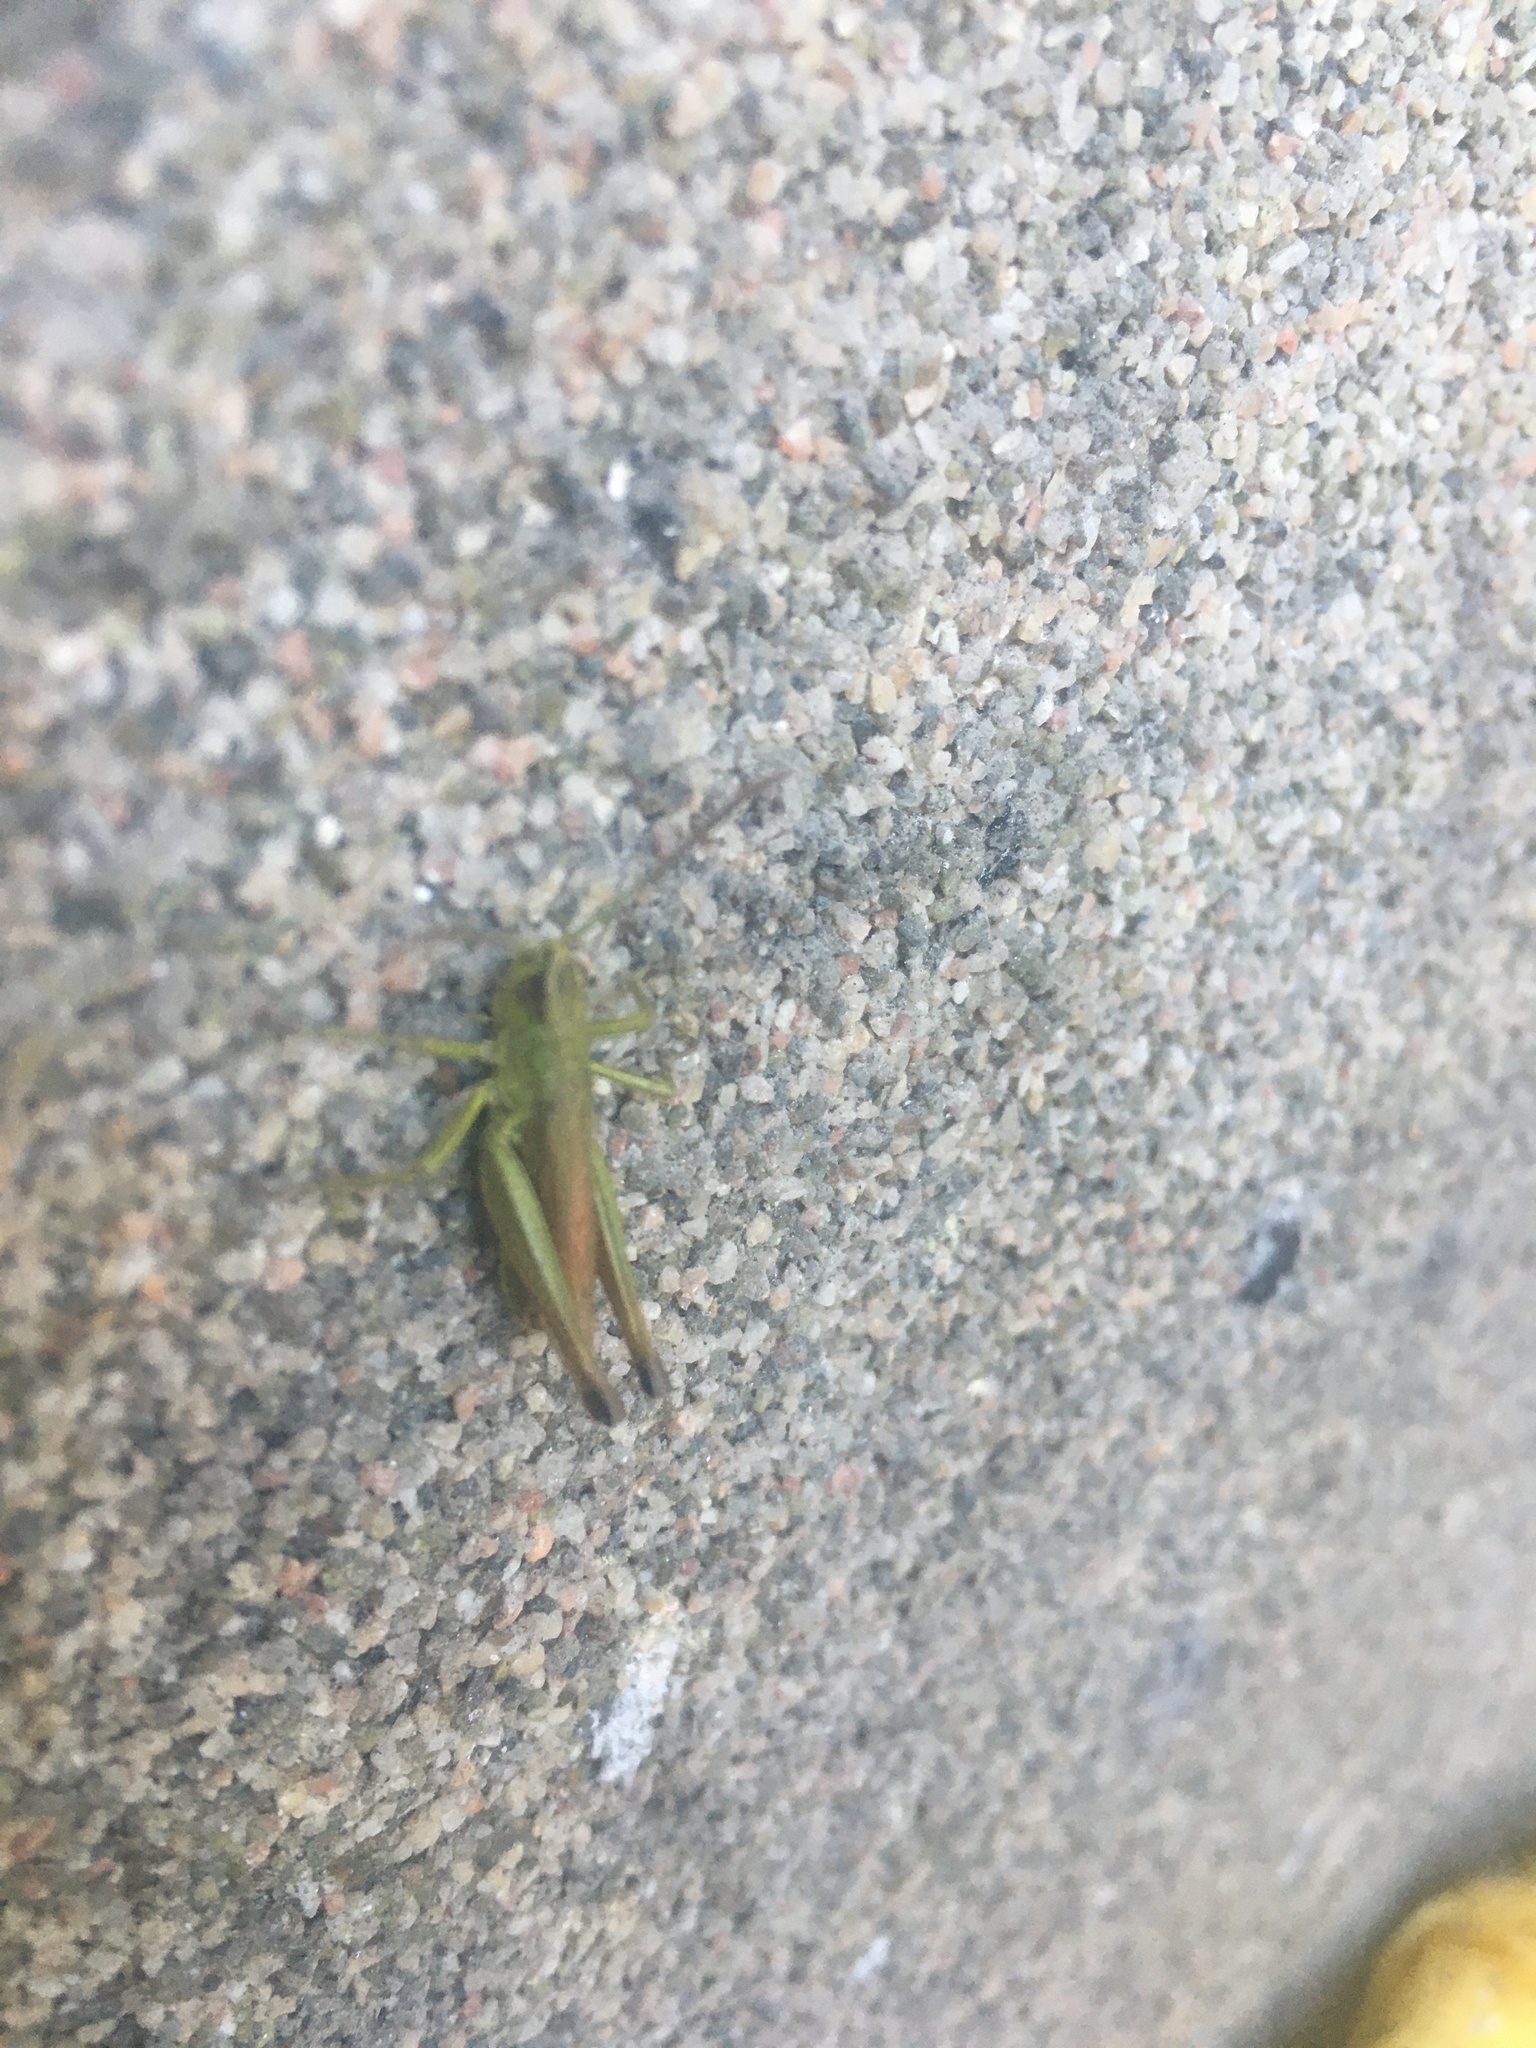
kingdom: Animalia
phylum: Arthropoda
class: Insecta
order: Orthoptera
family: Acrididae
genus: Pseudochorthippus
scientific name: Pseudochorthippus parallelus
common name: Meadow grasshopper
